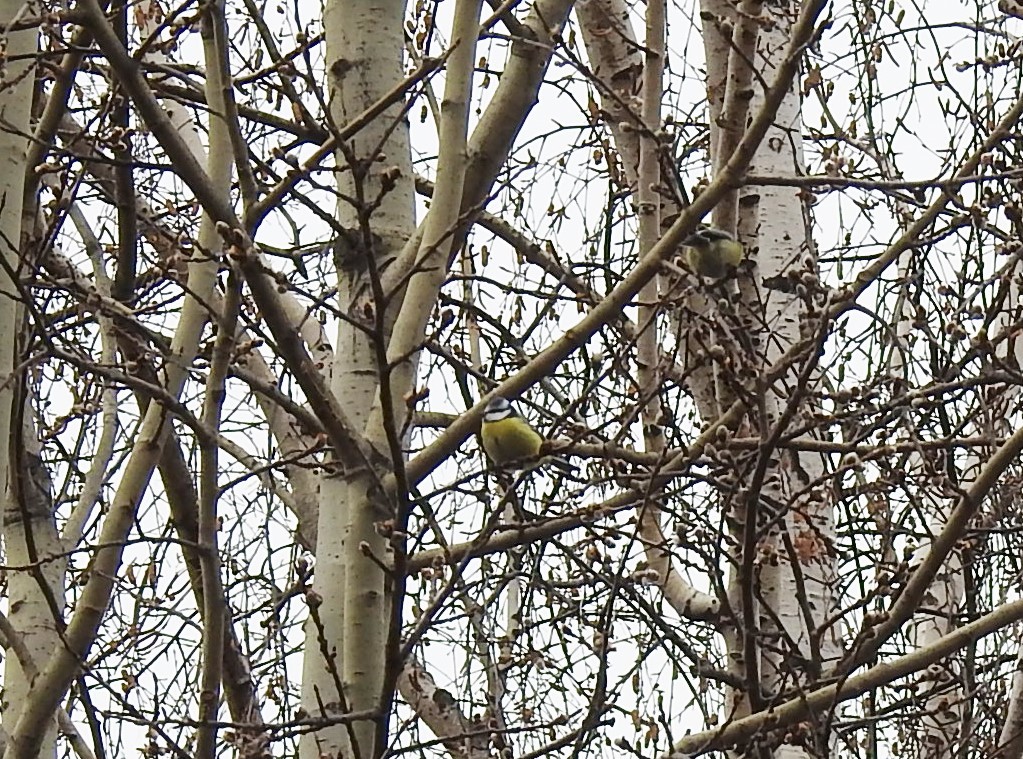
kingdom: Animalia
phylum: Chordata
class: Aves
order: Passeriformes
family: Paridae
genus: Cyanistes
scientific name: Cyanistes caeruleus
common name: Eurasian blue tit
